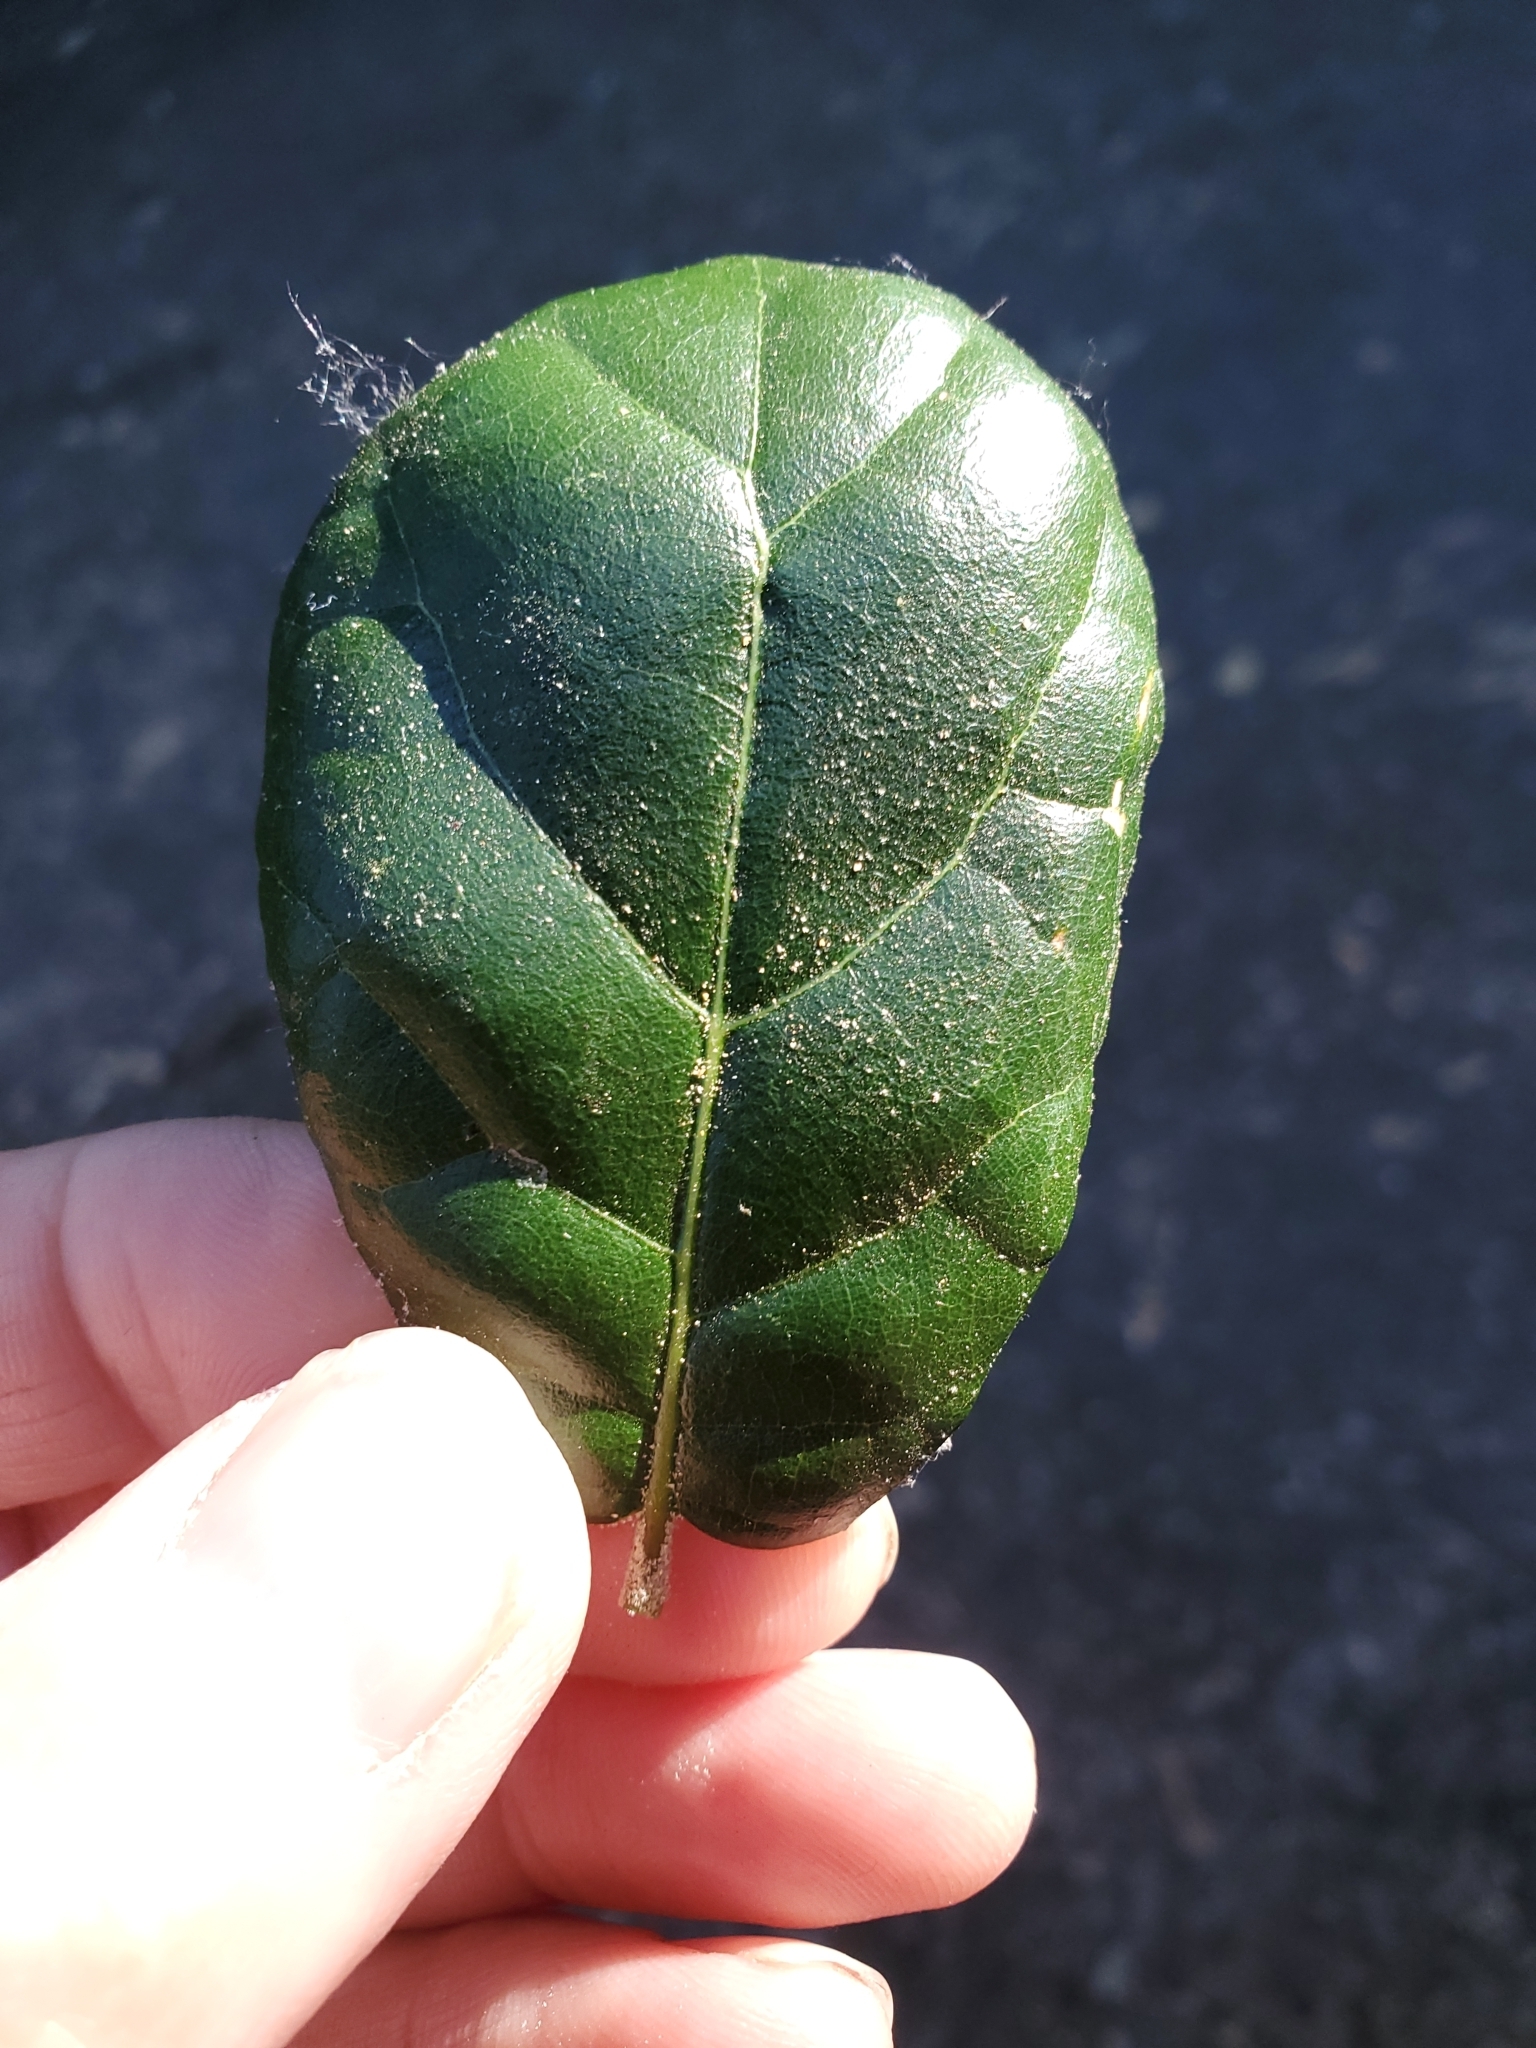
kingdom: Plantae
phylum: Tracheophyta
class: Magnoliopsida
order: Fagales
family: Fagaceae
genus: Quercus
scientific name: Quercus agrifolia
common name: California live oak
